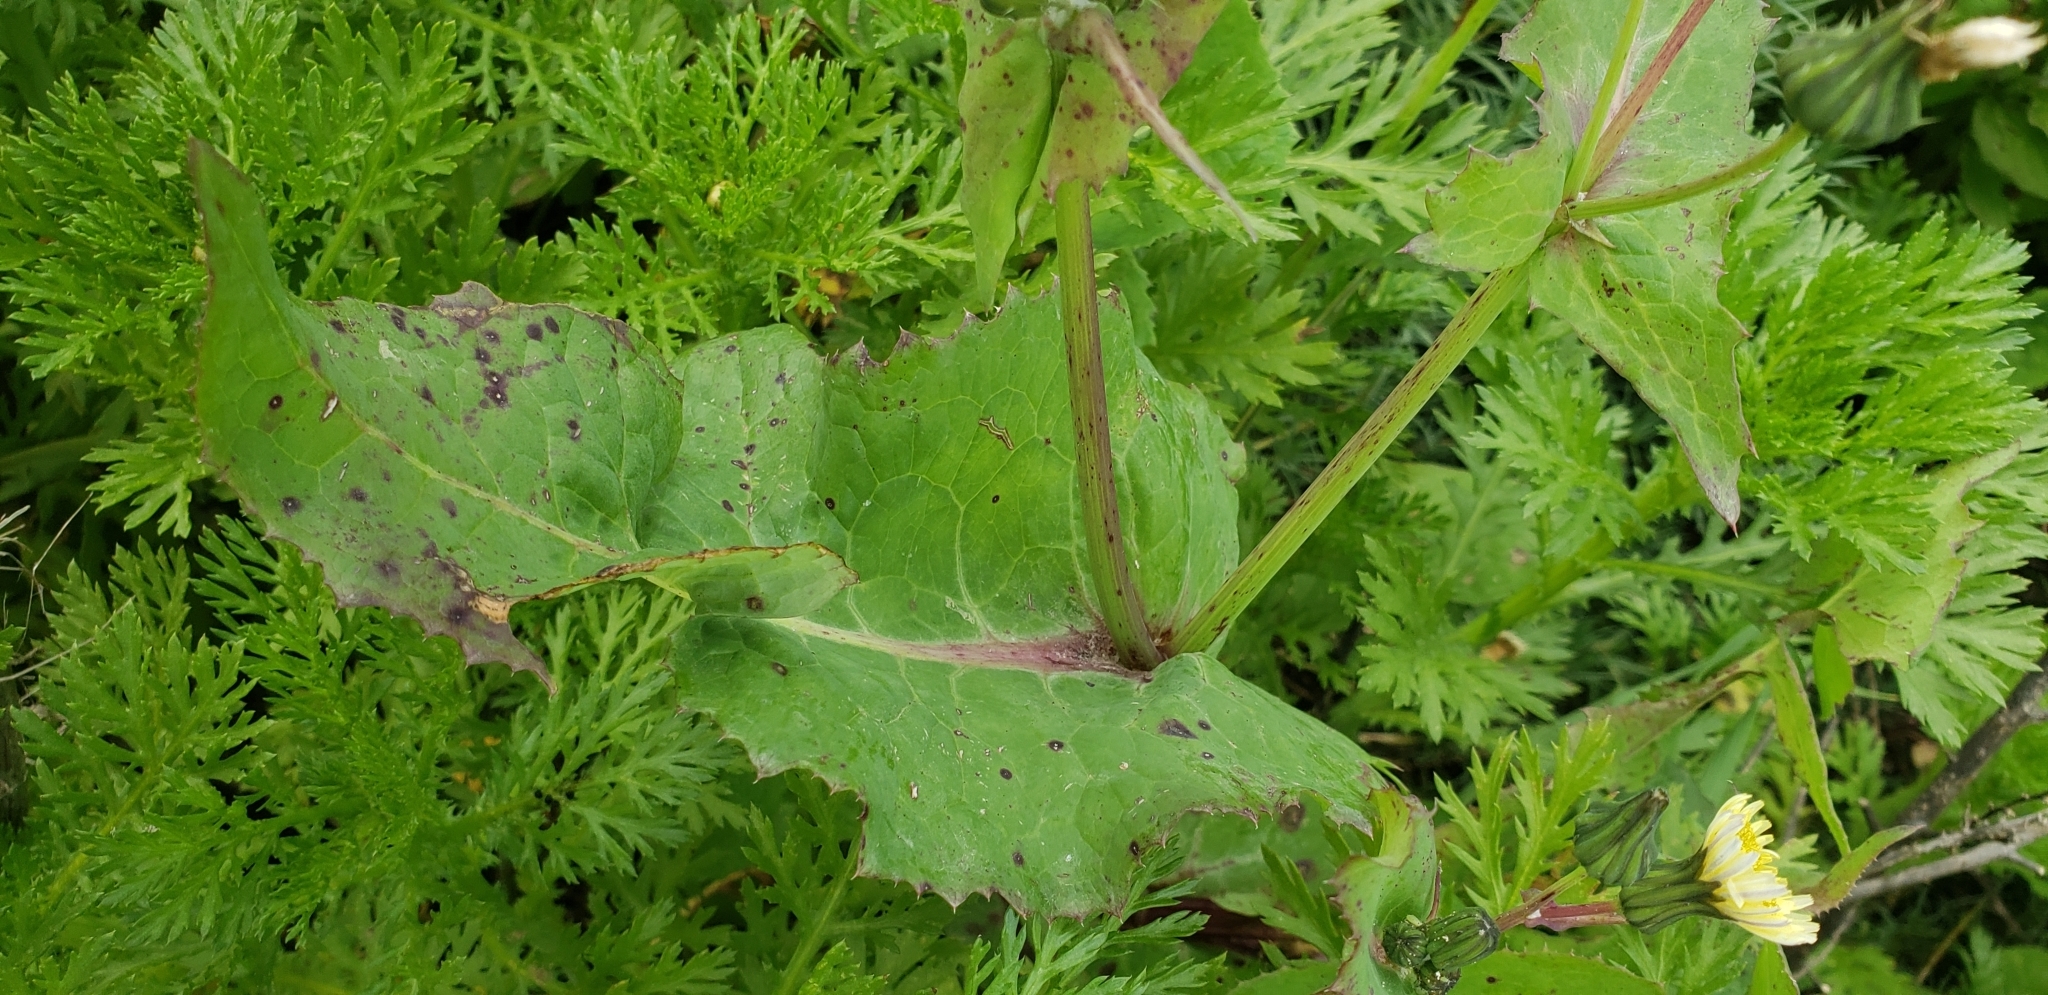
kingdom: Plantae
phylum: Tracheophyta
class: Magnoliopsida
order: Asterales
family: Asteraceae
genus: Sonchus
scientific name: Sonchus oleraceus
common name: Common sowthistle
